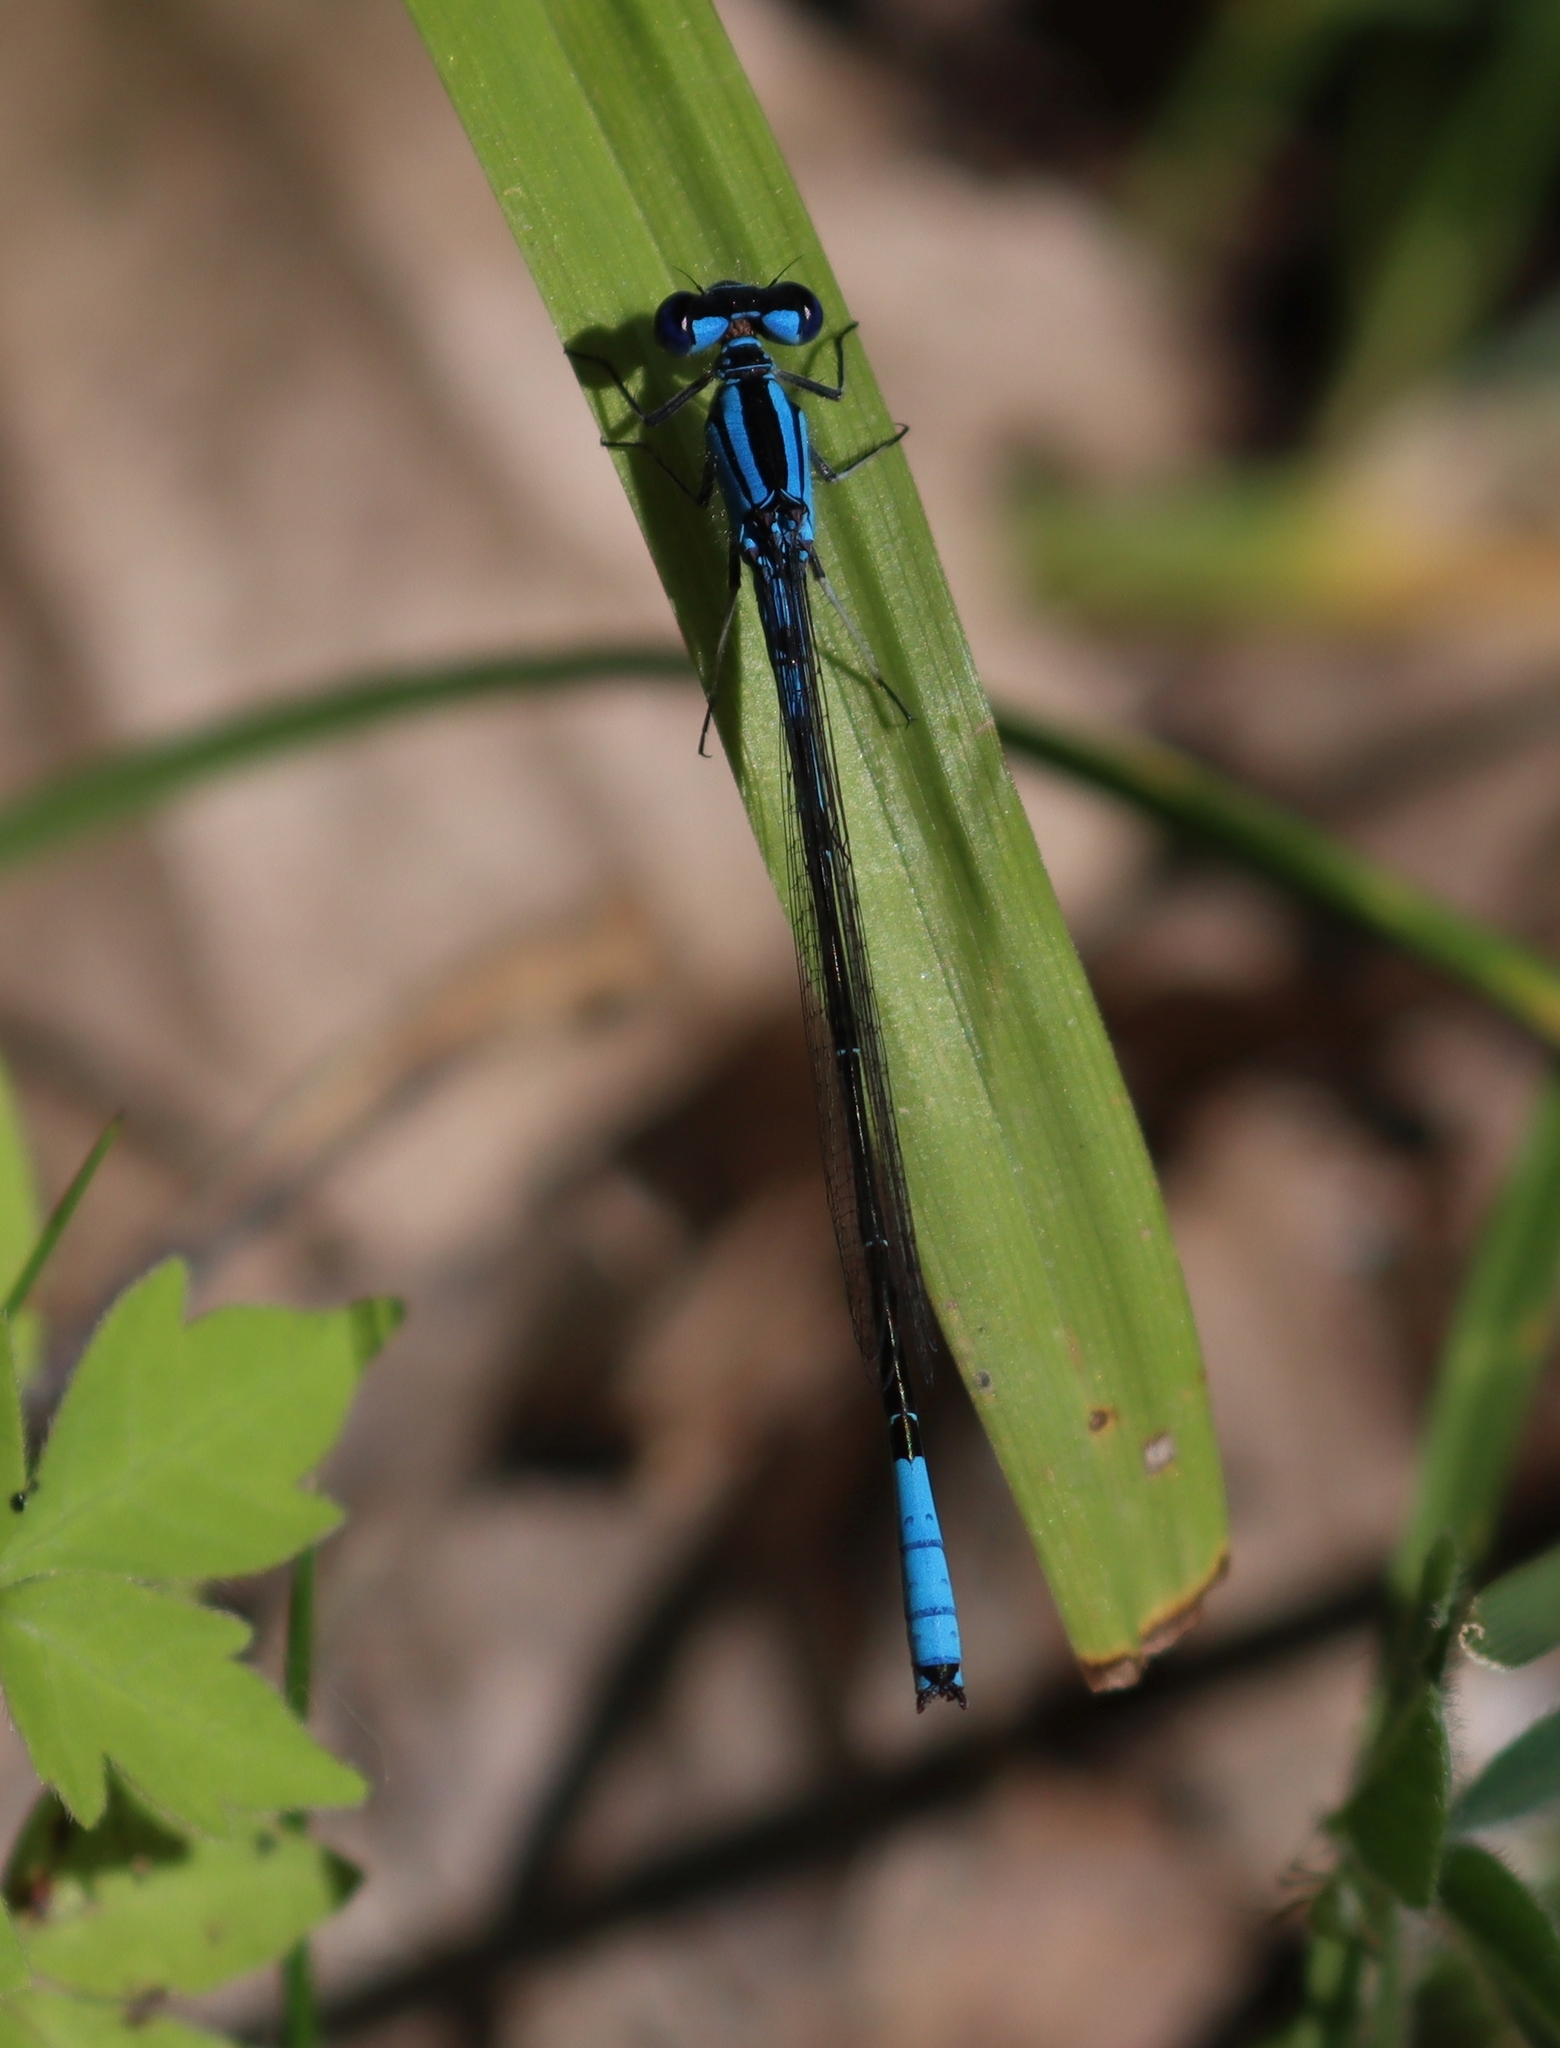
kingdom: Animalia
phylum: Arthropoda
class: Insecta
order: Odonata
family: Coenagrionidae
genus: Enallagma
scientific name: Enallagma aspersum
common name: Azure bluet
